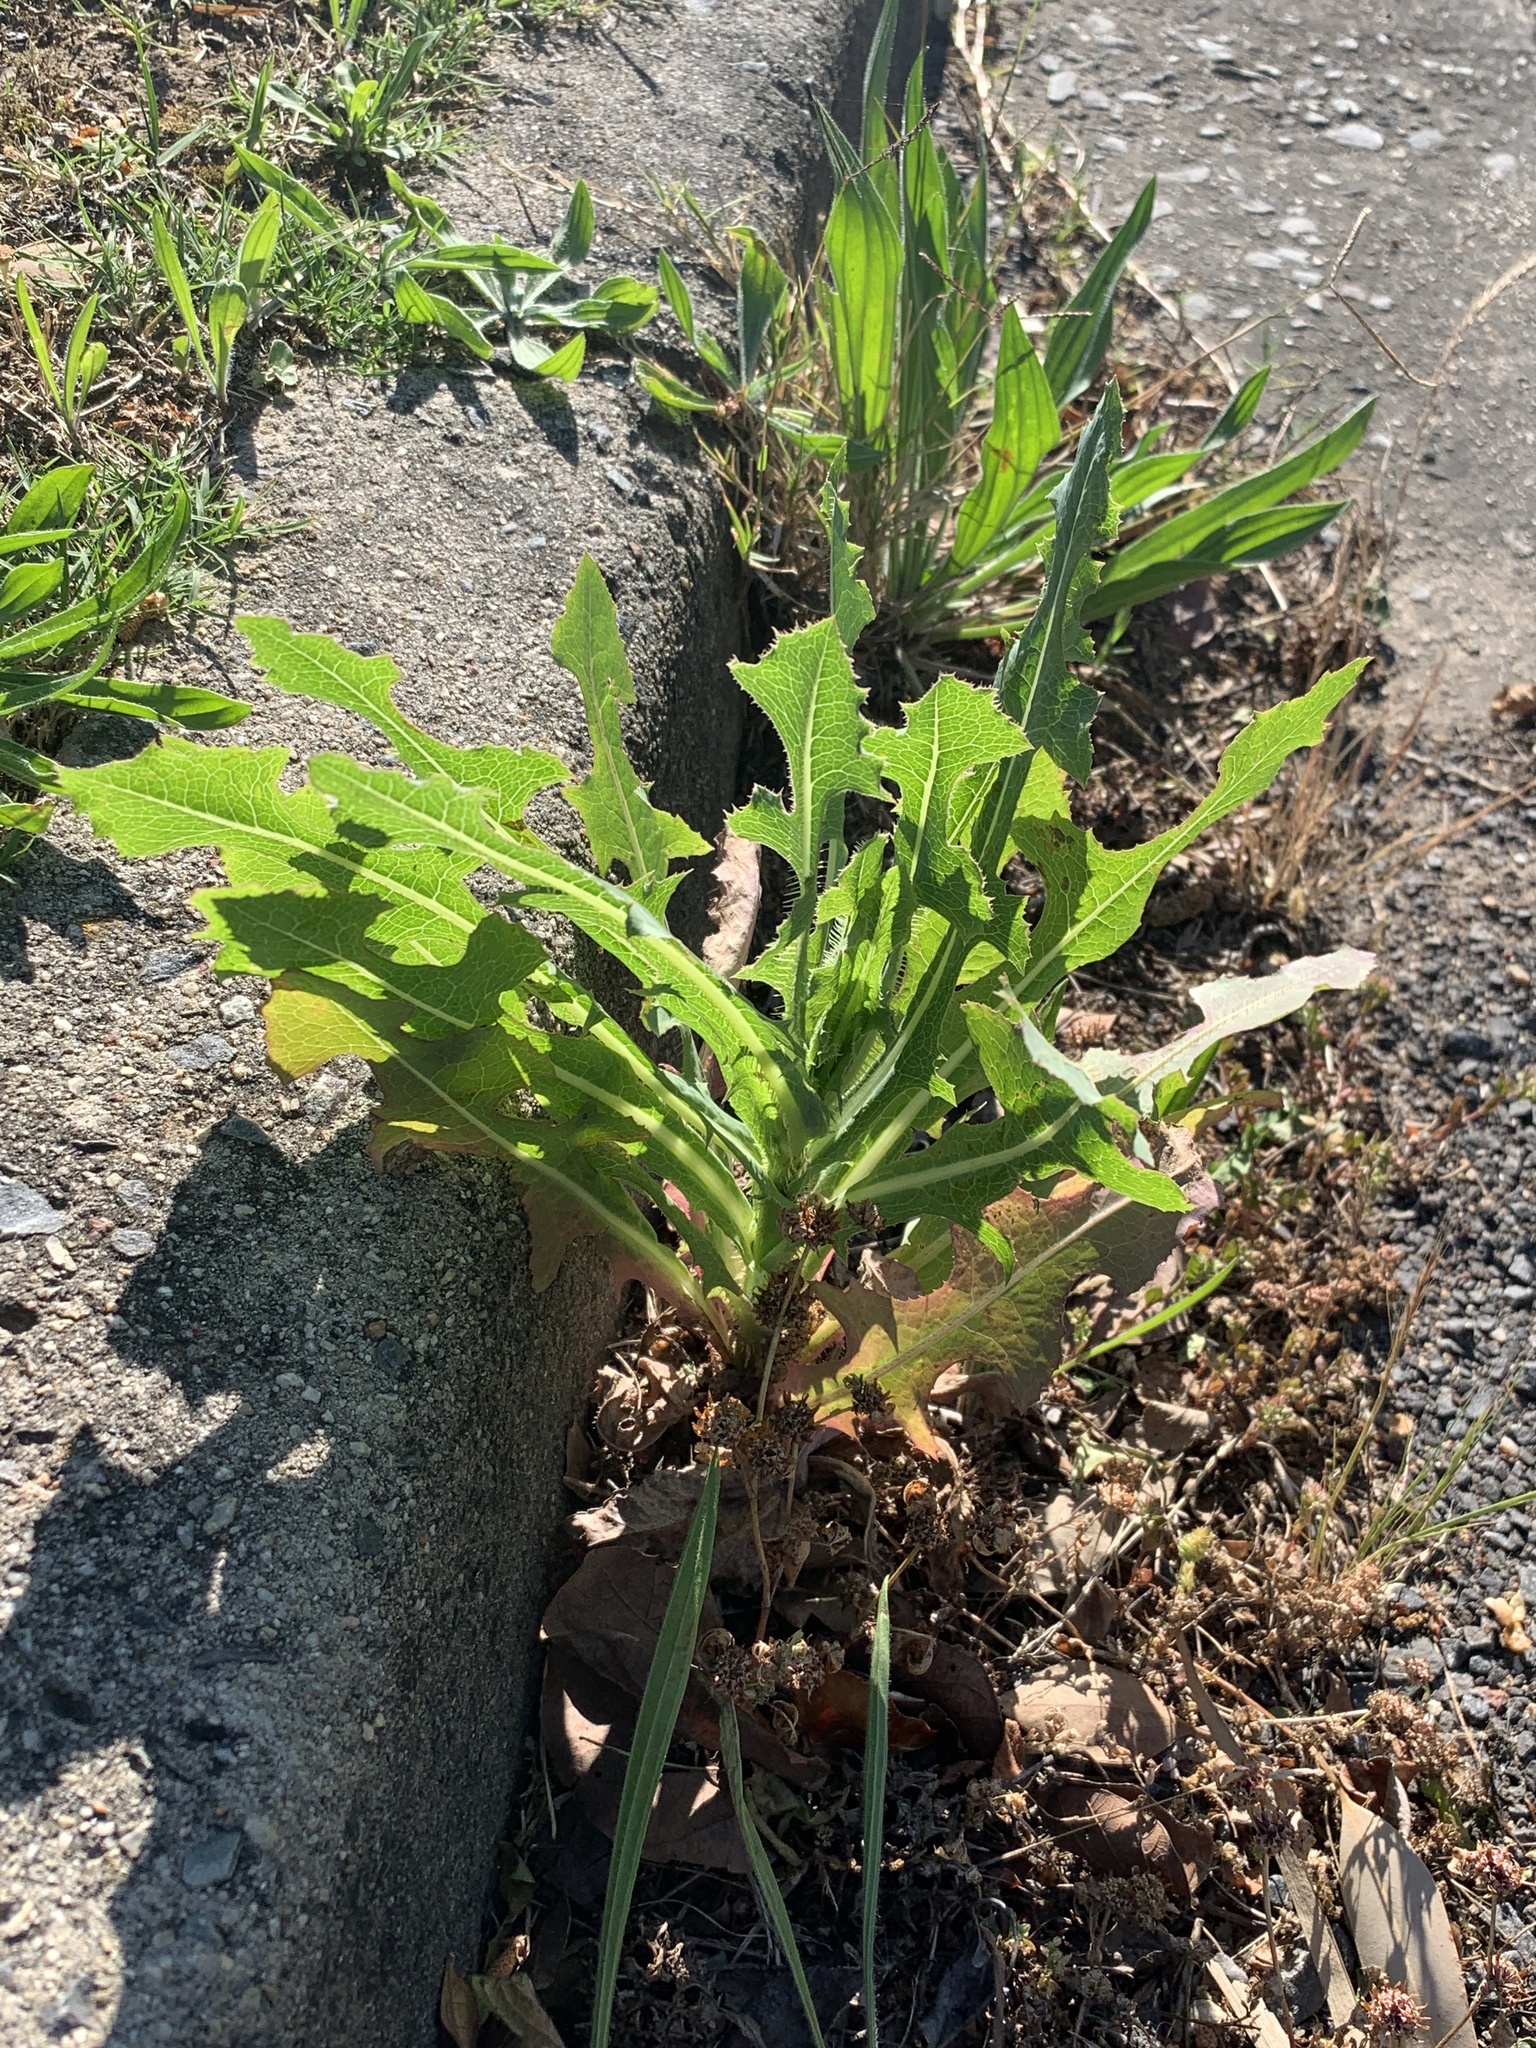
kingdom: Plantae
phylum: Tracheophyta
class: Magnoliopsida
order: Asterales
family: Asteraceae
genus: Lactuca
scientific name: Lactuca serriola
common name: Prickly lettuce
